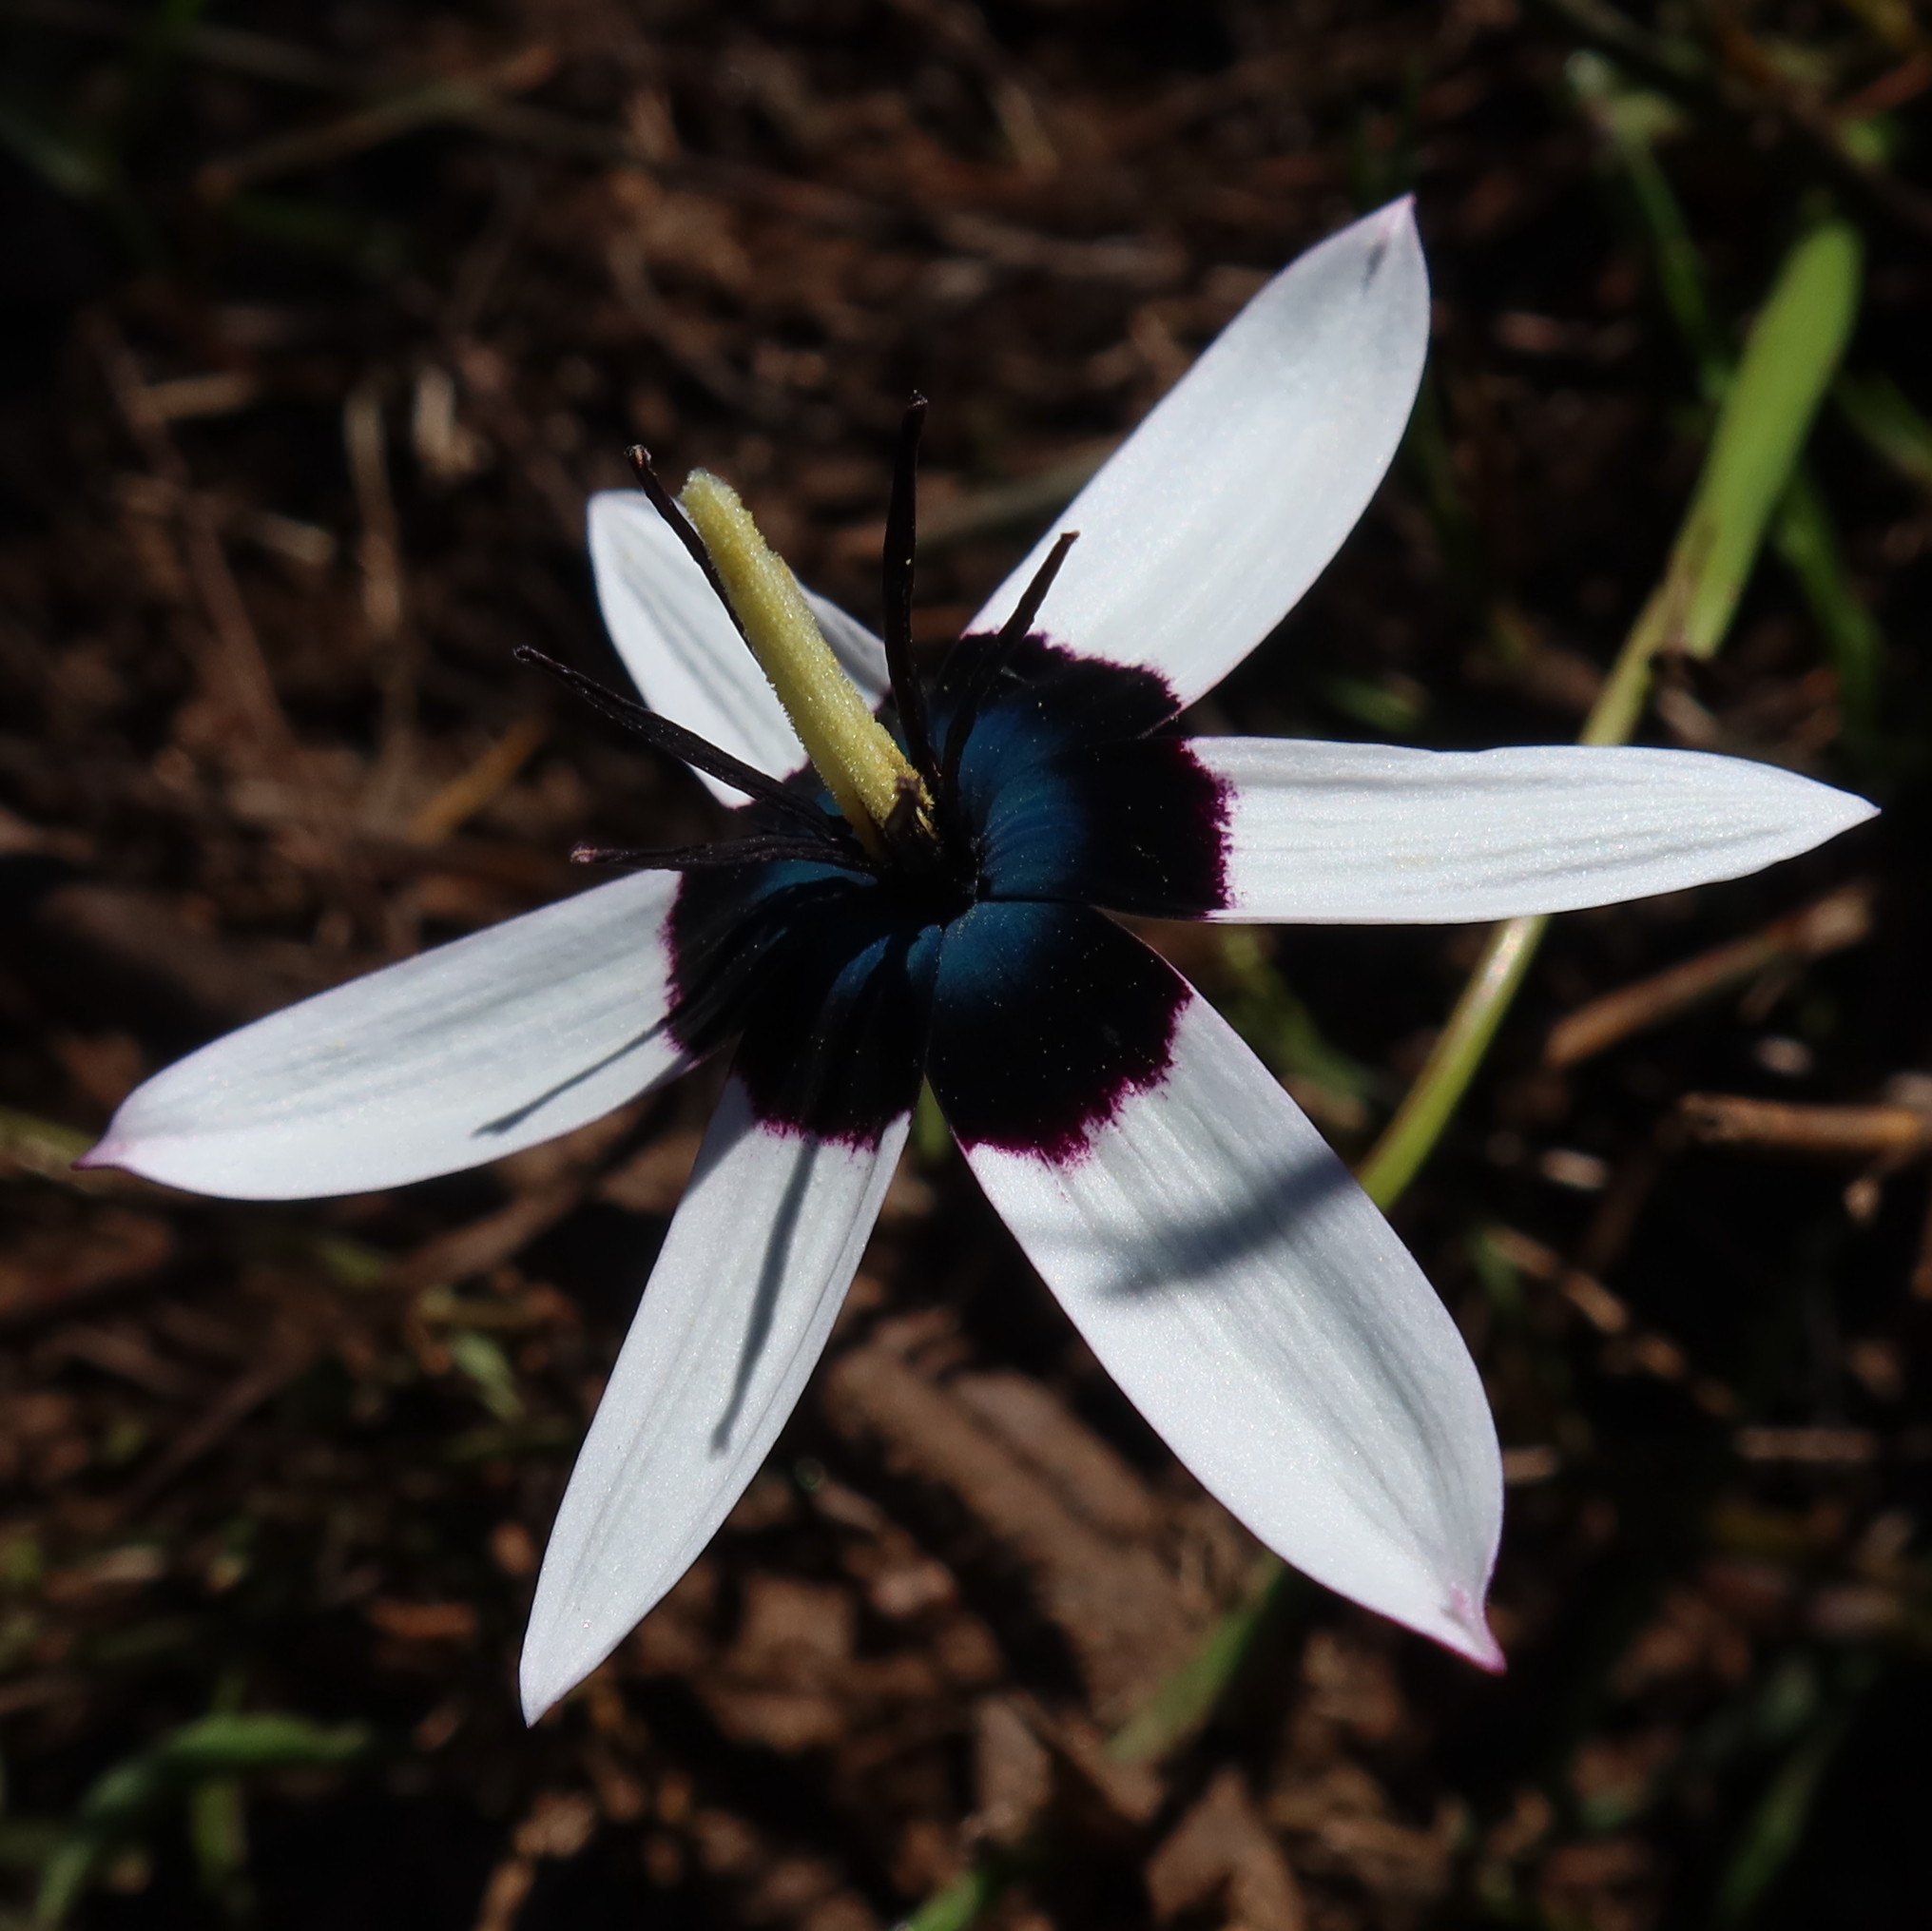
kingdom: Plantae
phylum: Tracheophyta
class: Liliopsida
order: Asparagales
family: Hypoxidaceae
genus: Pauridia
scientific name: Pauridia capensis
